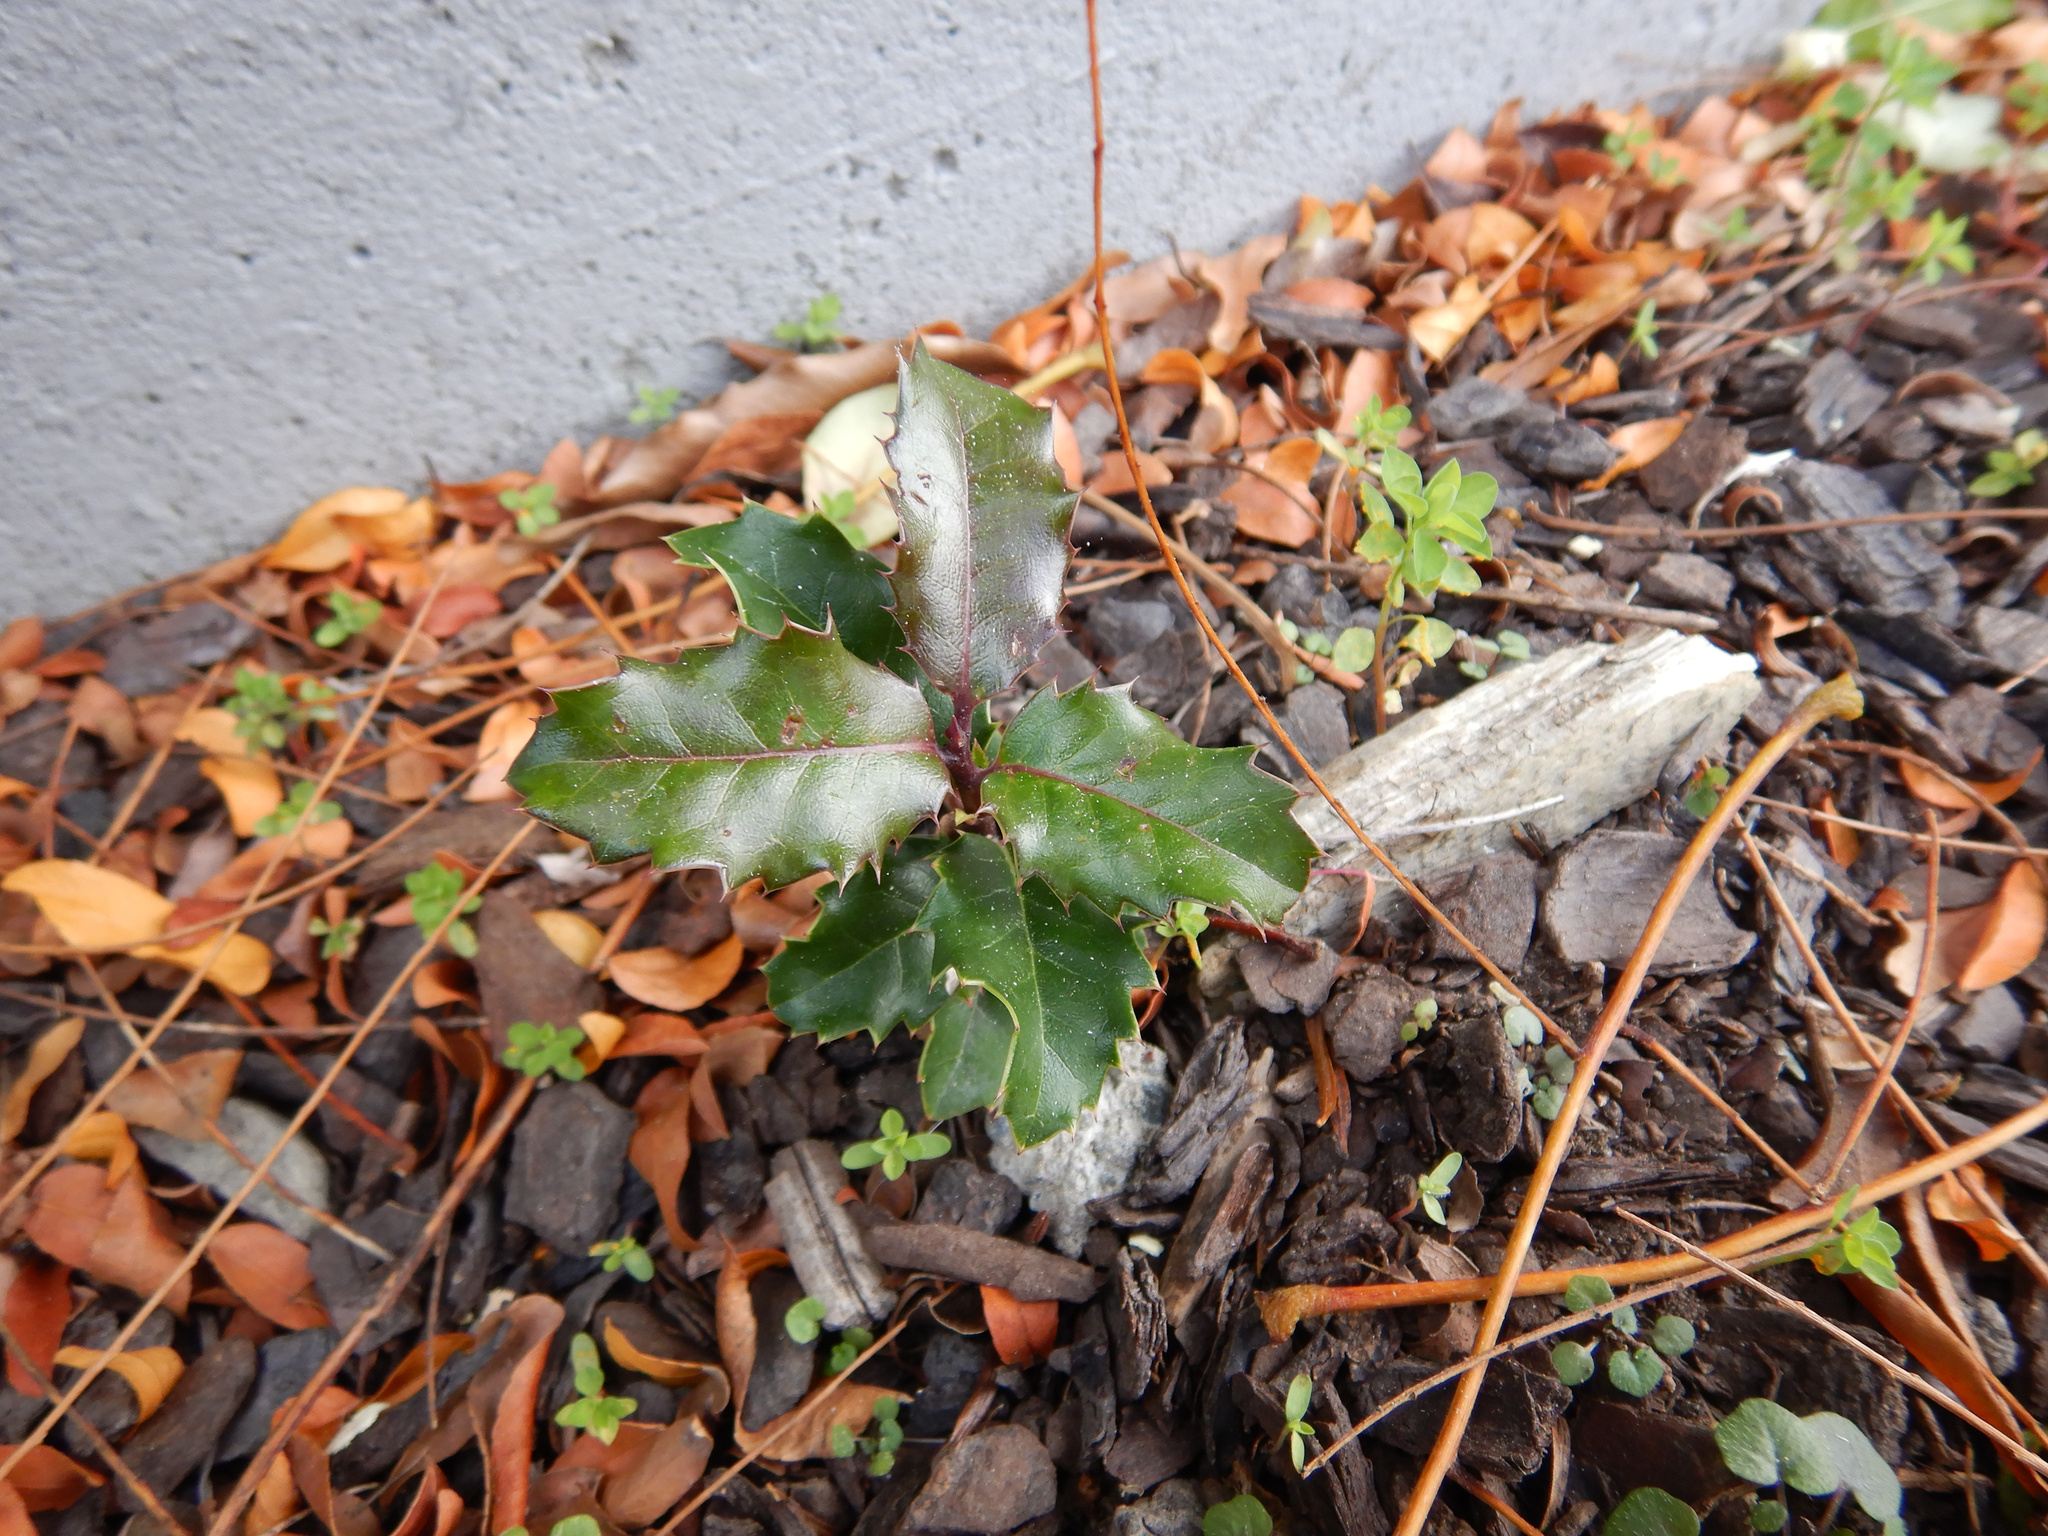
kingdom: Plantae
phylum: Tracheophyta
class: Magnoliopsida
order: Aquifoliales
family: Aquifoliaceae
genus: Ilex
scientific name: Ilex aquifolium
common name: English holly
